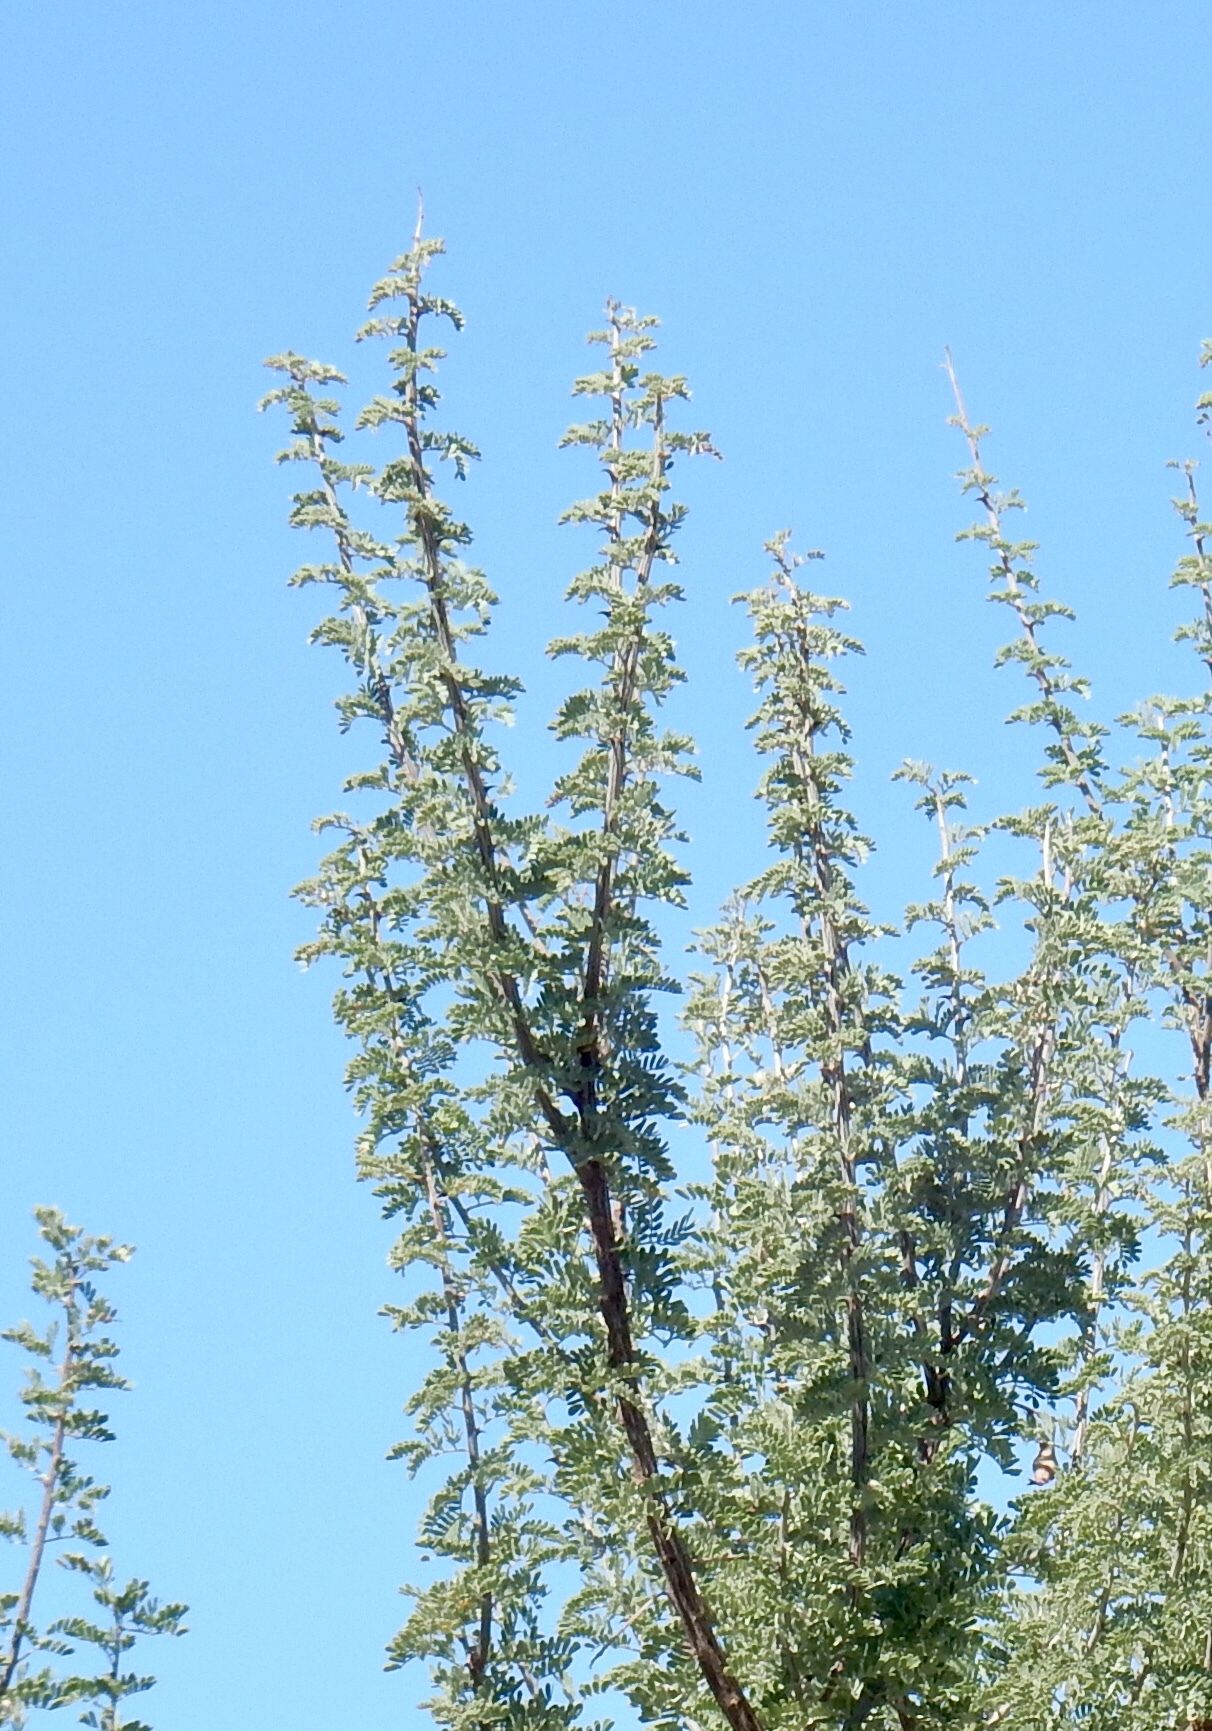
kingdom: Plantae
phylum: Tracheophyta
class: Magnoliopsida
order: Fabales
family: Fabaceae
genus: Senegalia
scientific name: Senegalia greggii
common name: Texas-mimosa
